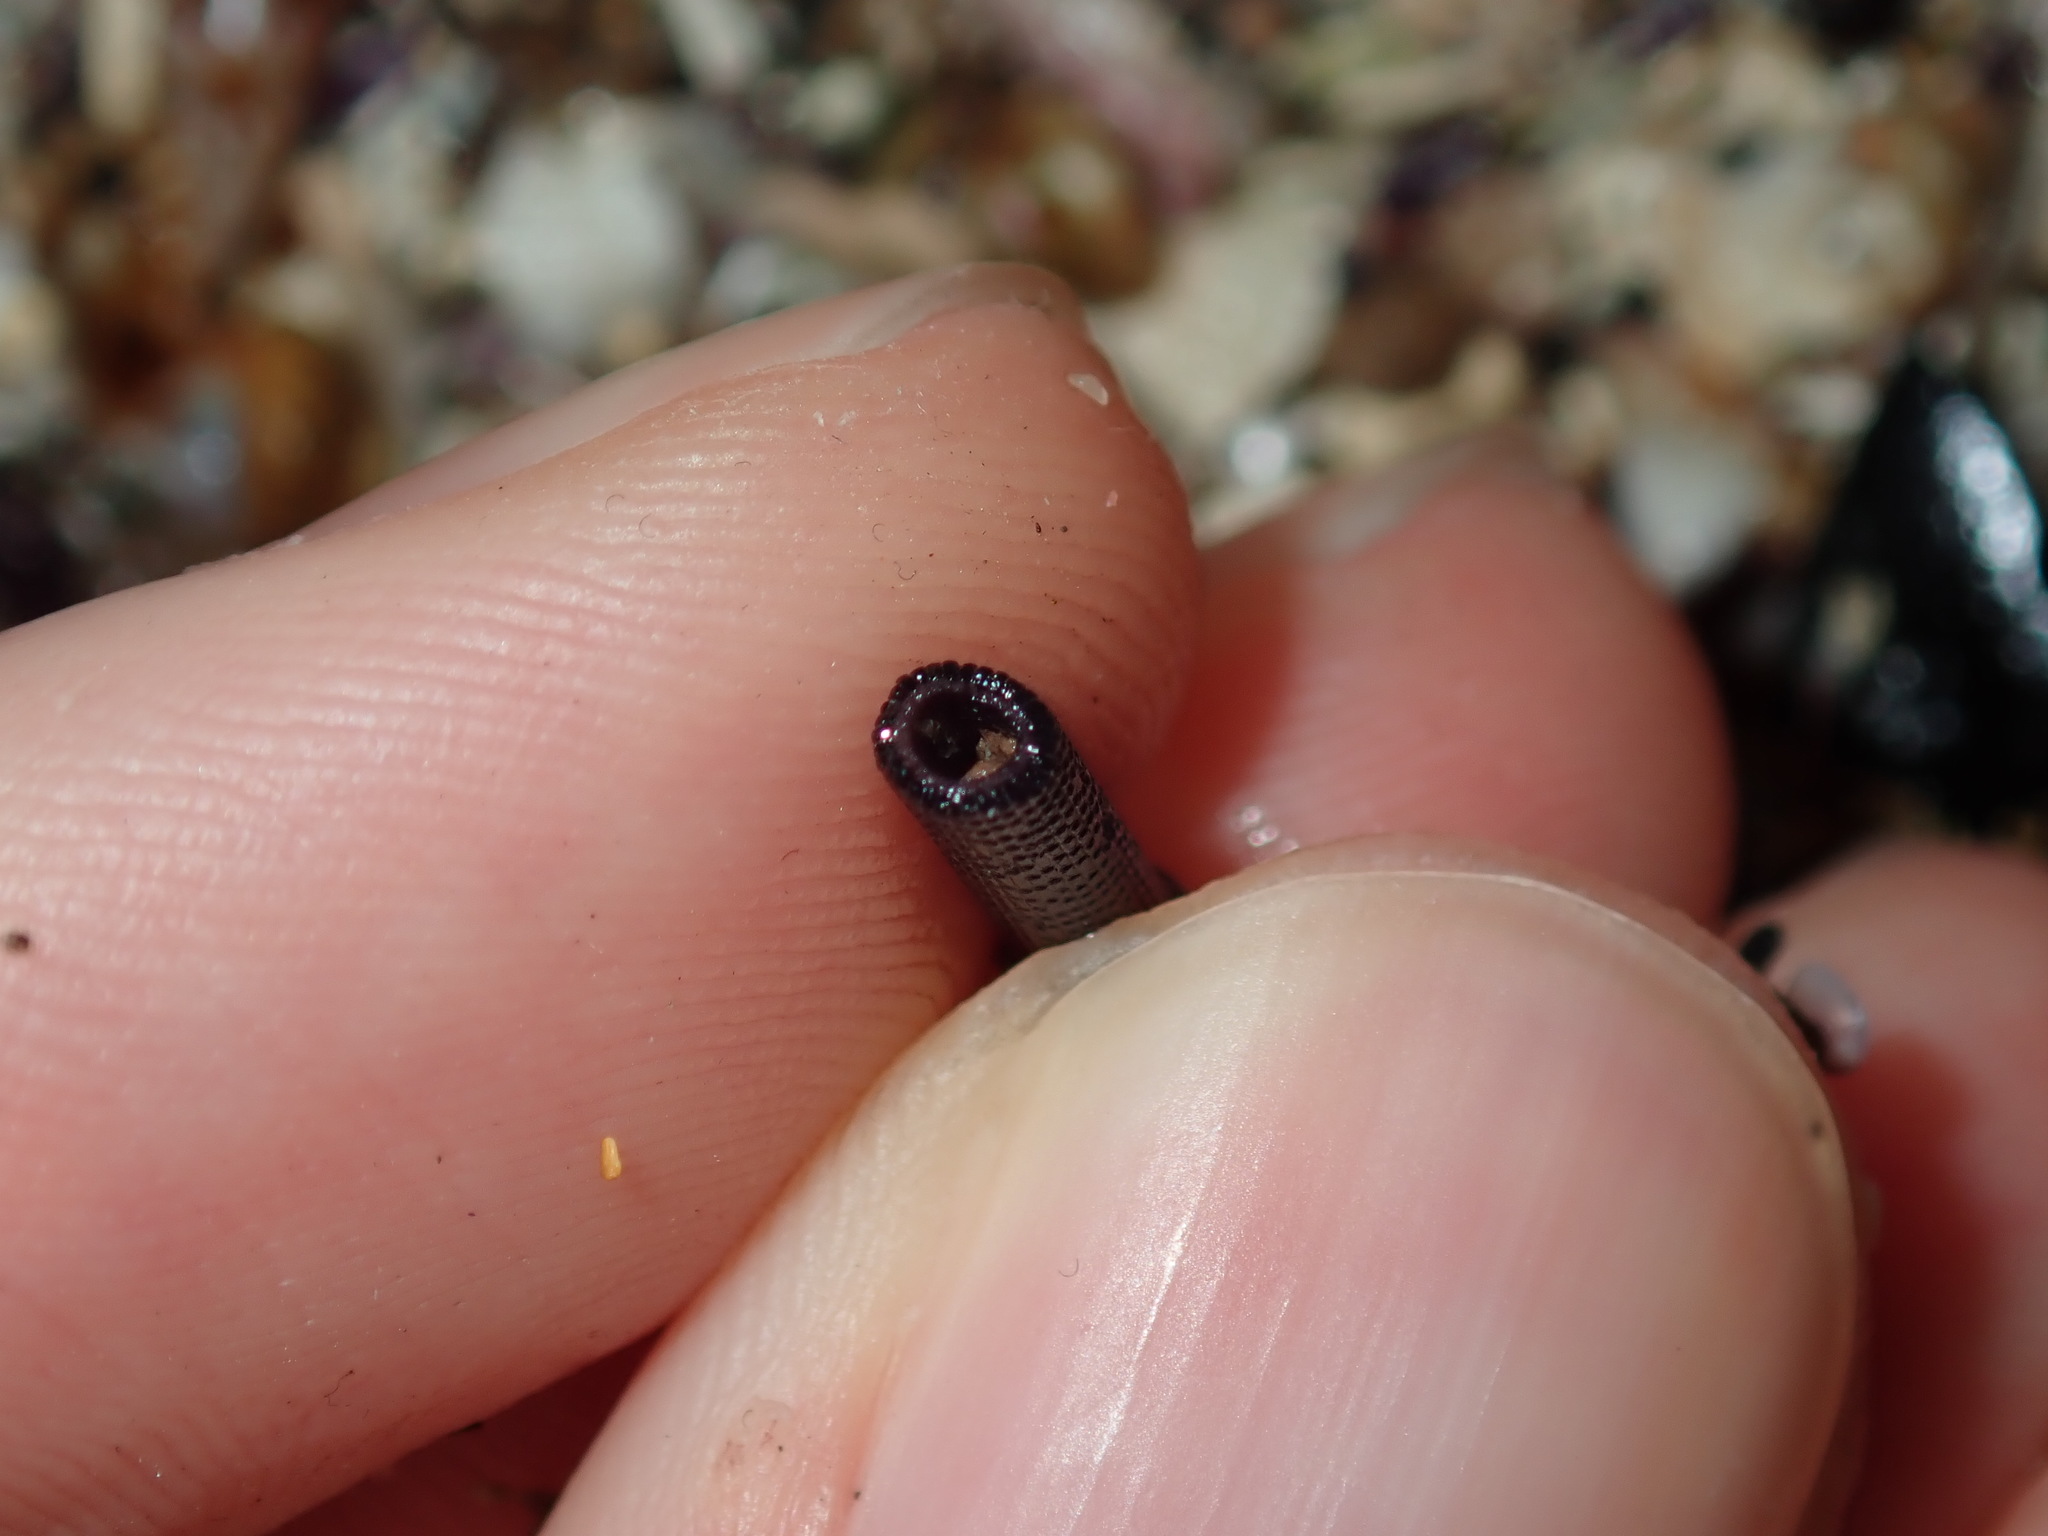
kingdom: Animalia
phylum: Echinodermata
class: Echinoidea
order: Diadematoida
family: Diadematidae
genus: Centrostephanus
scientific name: Centrostephanus rodgersii
